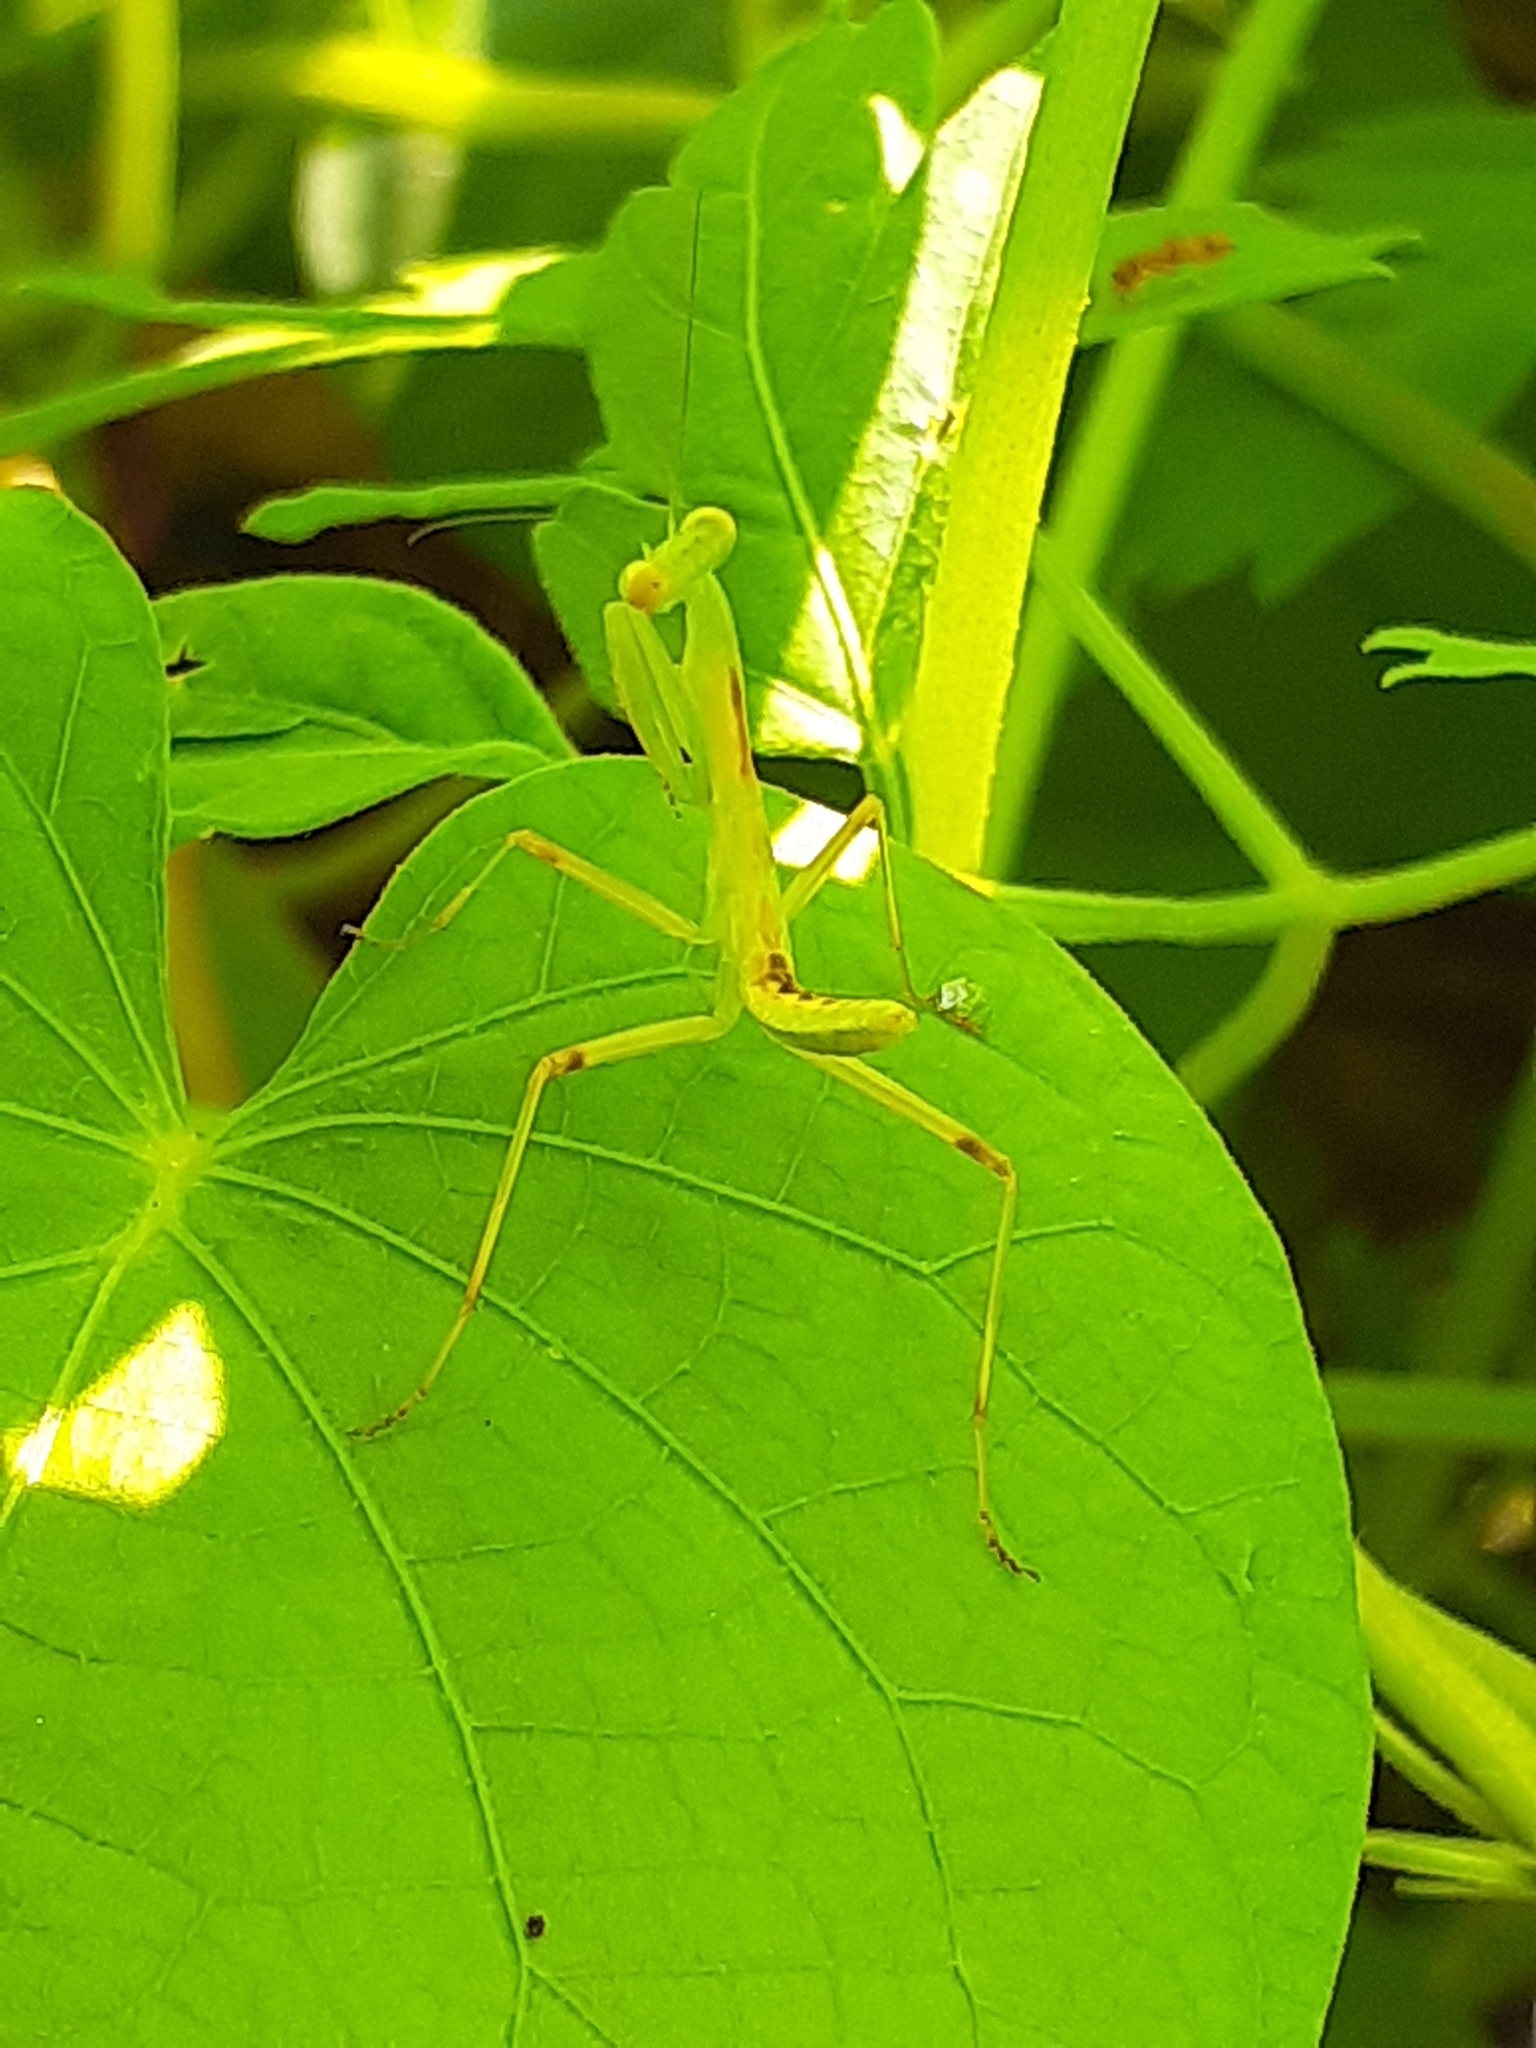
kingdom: Animalia
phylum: Arthropoda
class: Insecta
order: Mantodea
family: Mantidae
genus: Hierodula
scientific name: Hierodula patellifera
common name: Asian mantis
